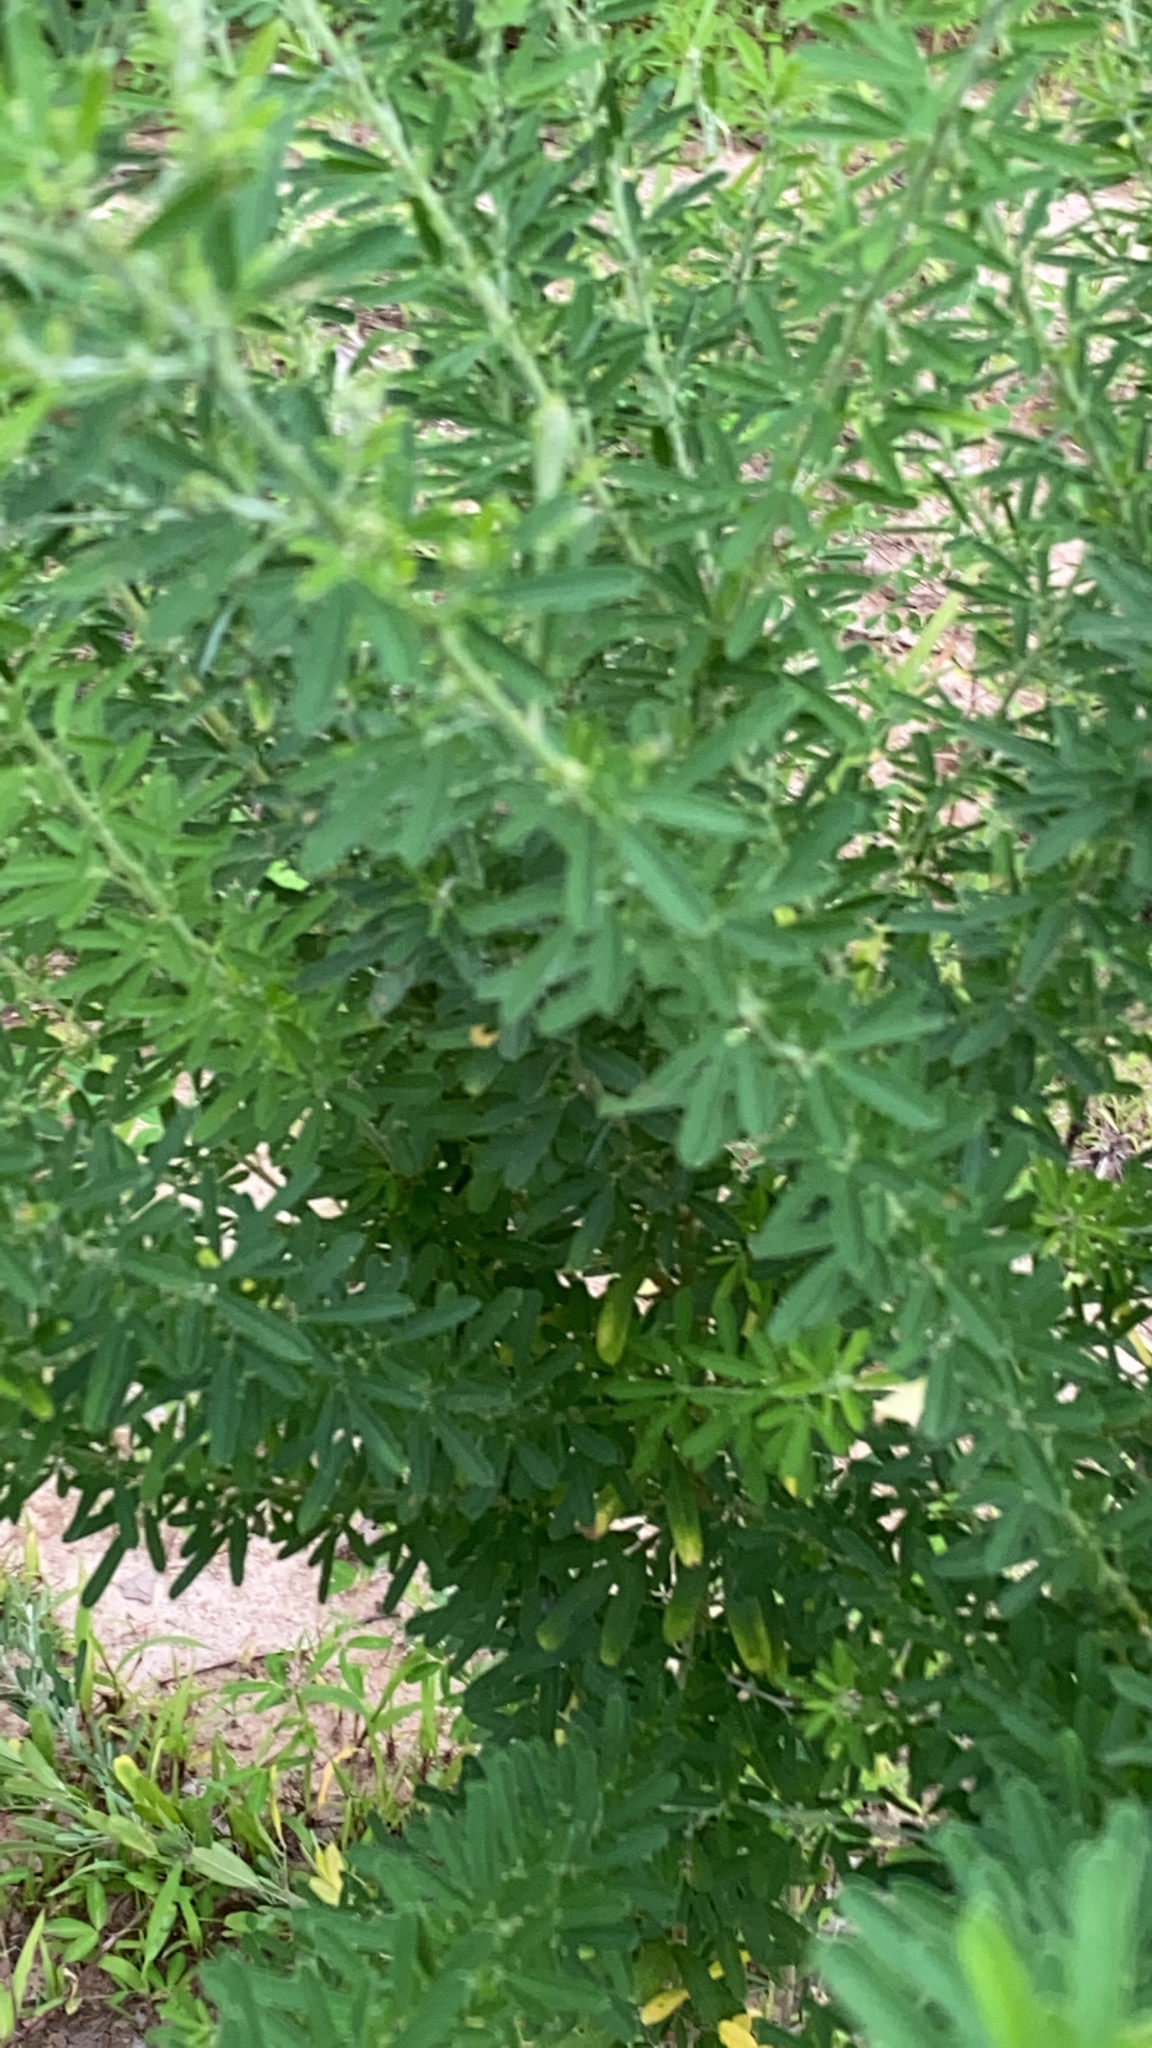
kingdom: Plantae
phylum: Tracheophyta
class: Magnoliopsida
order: Fabales
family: Fabaceae
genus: Lespedeza
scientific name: Lespedeza cuneata
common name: Chinese bush-clover
